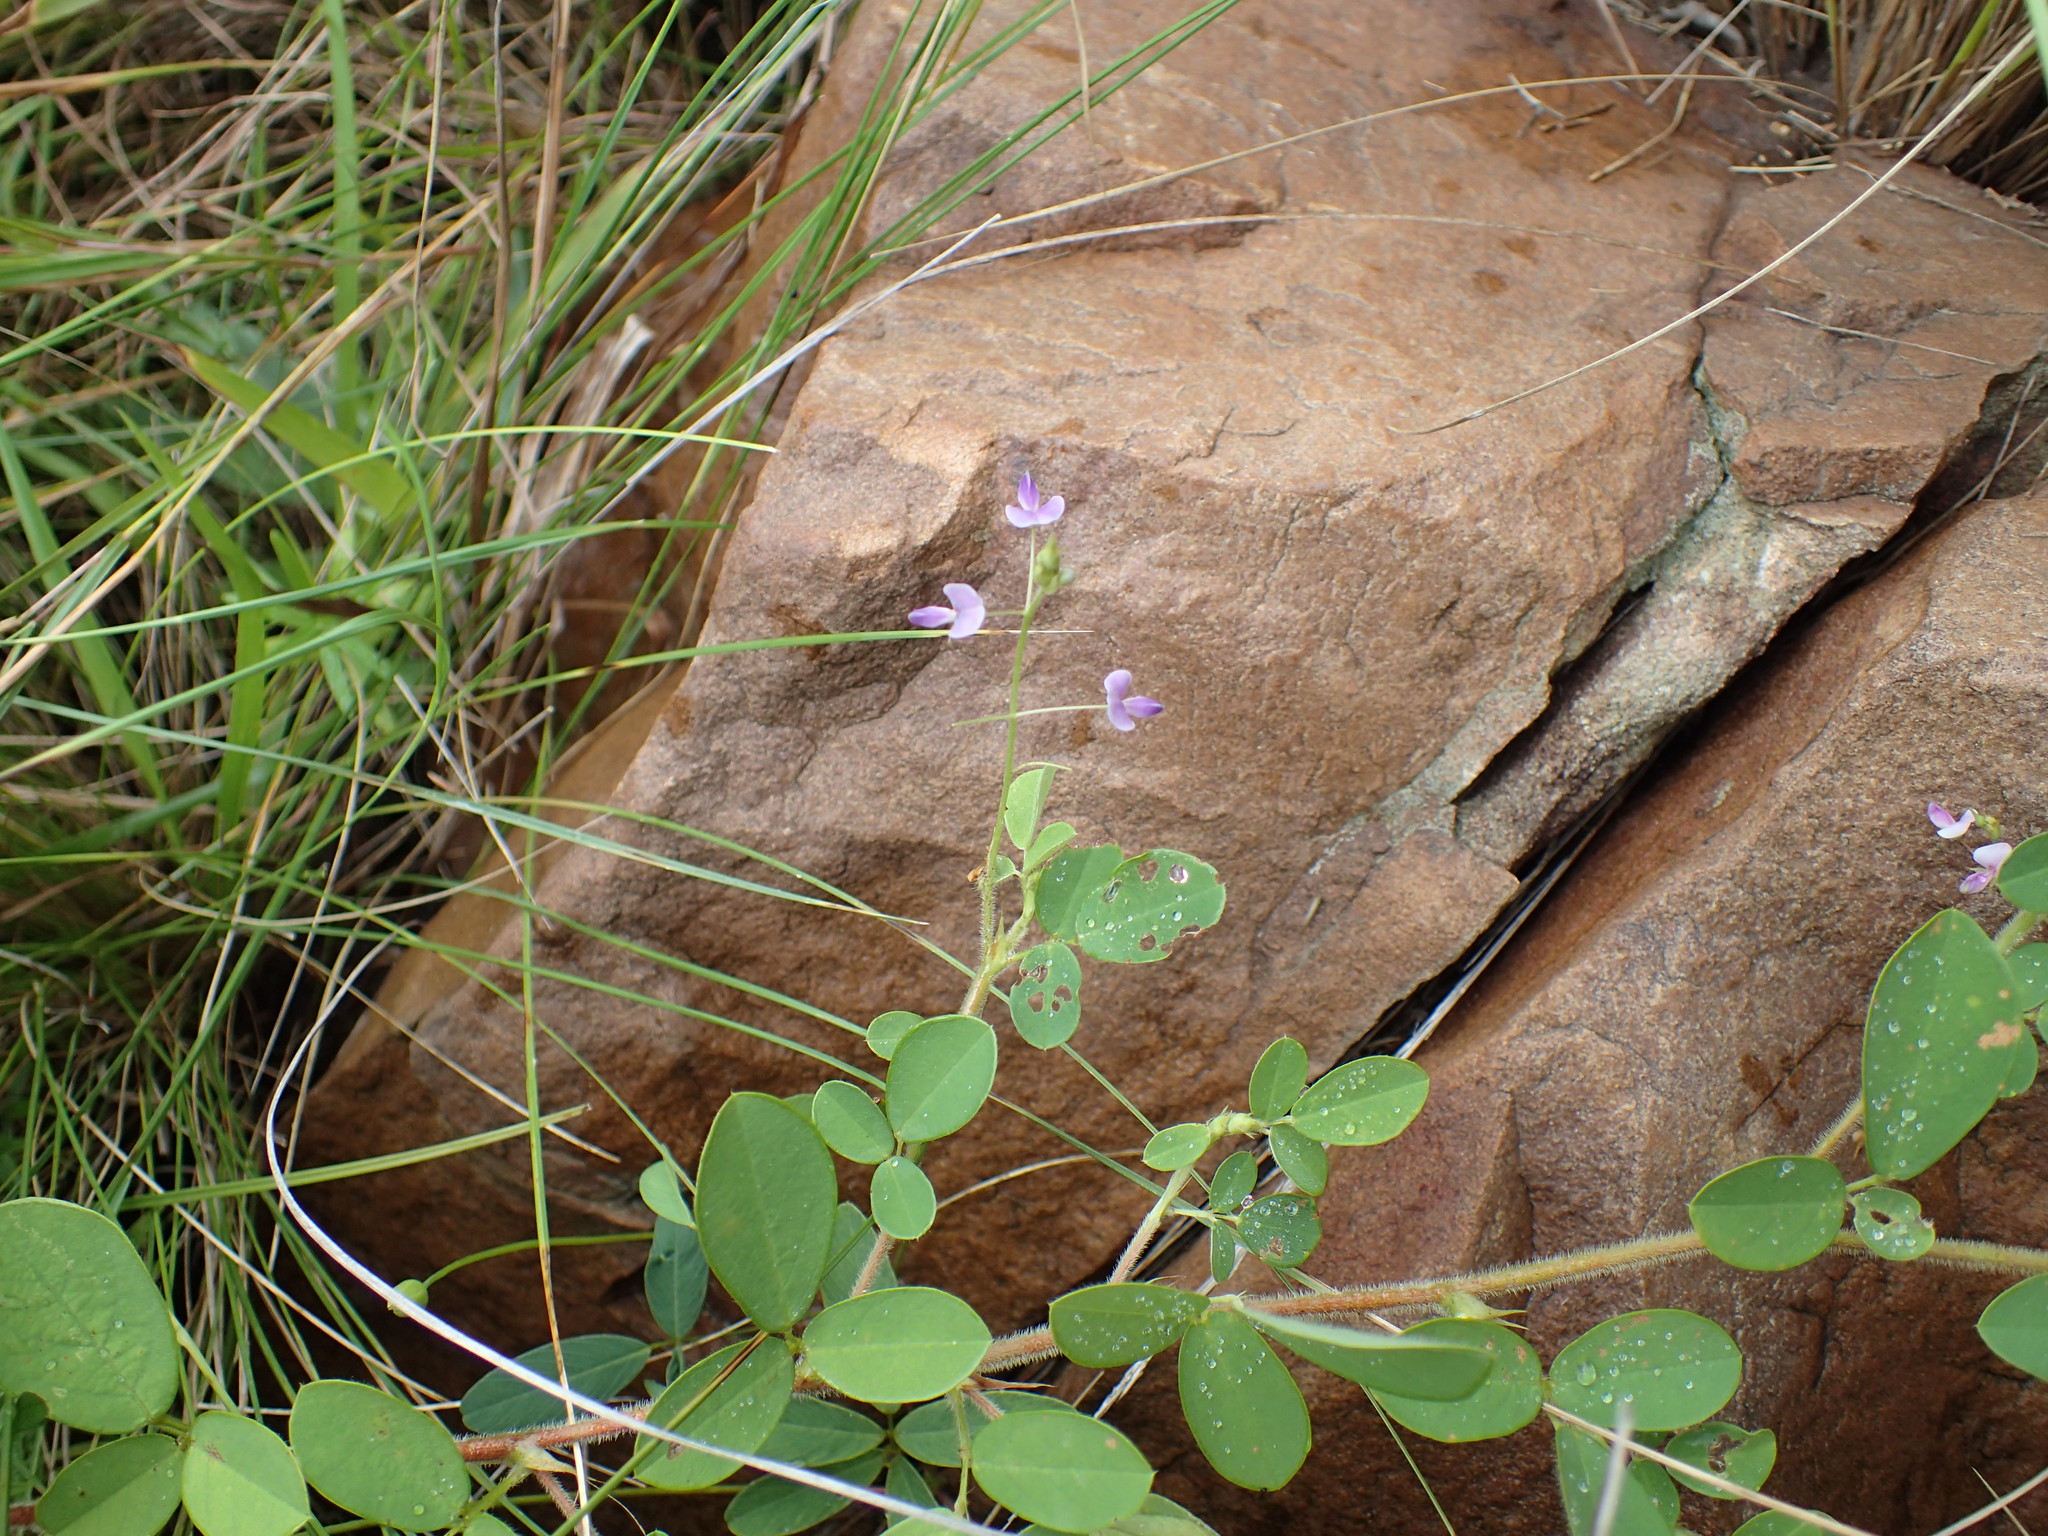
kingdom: Plantae
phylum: Tracheophyta
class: Magnoliopsida
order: Fabales
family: Fabaceae
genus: Grona
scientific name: Grona setigera
